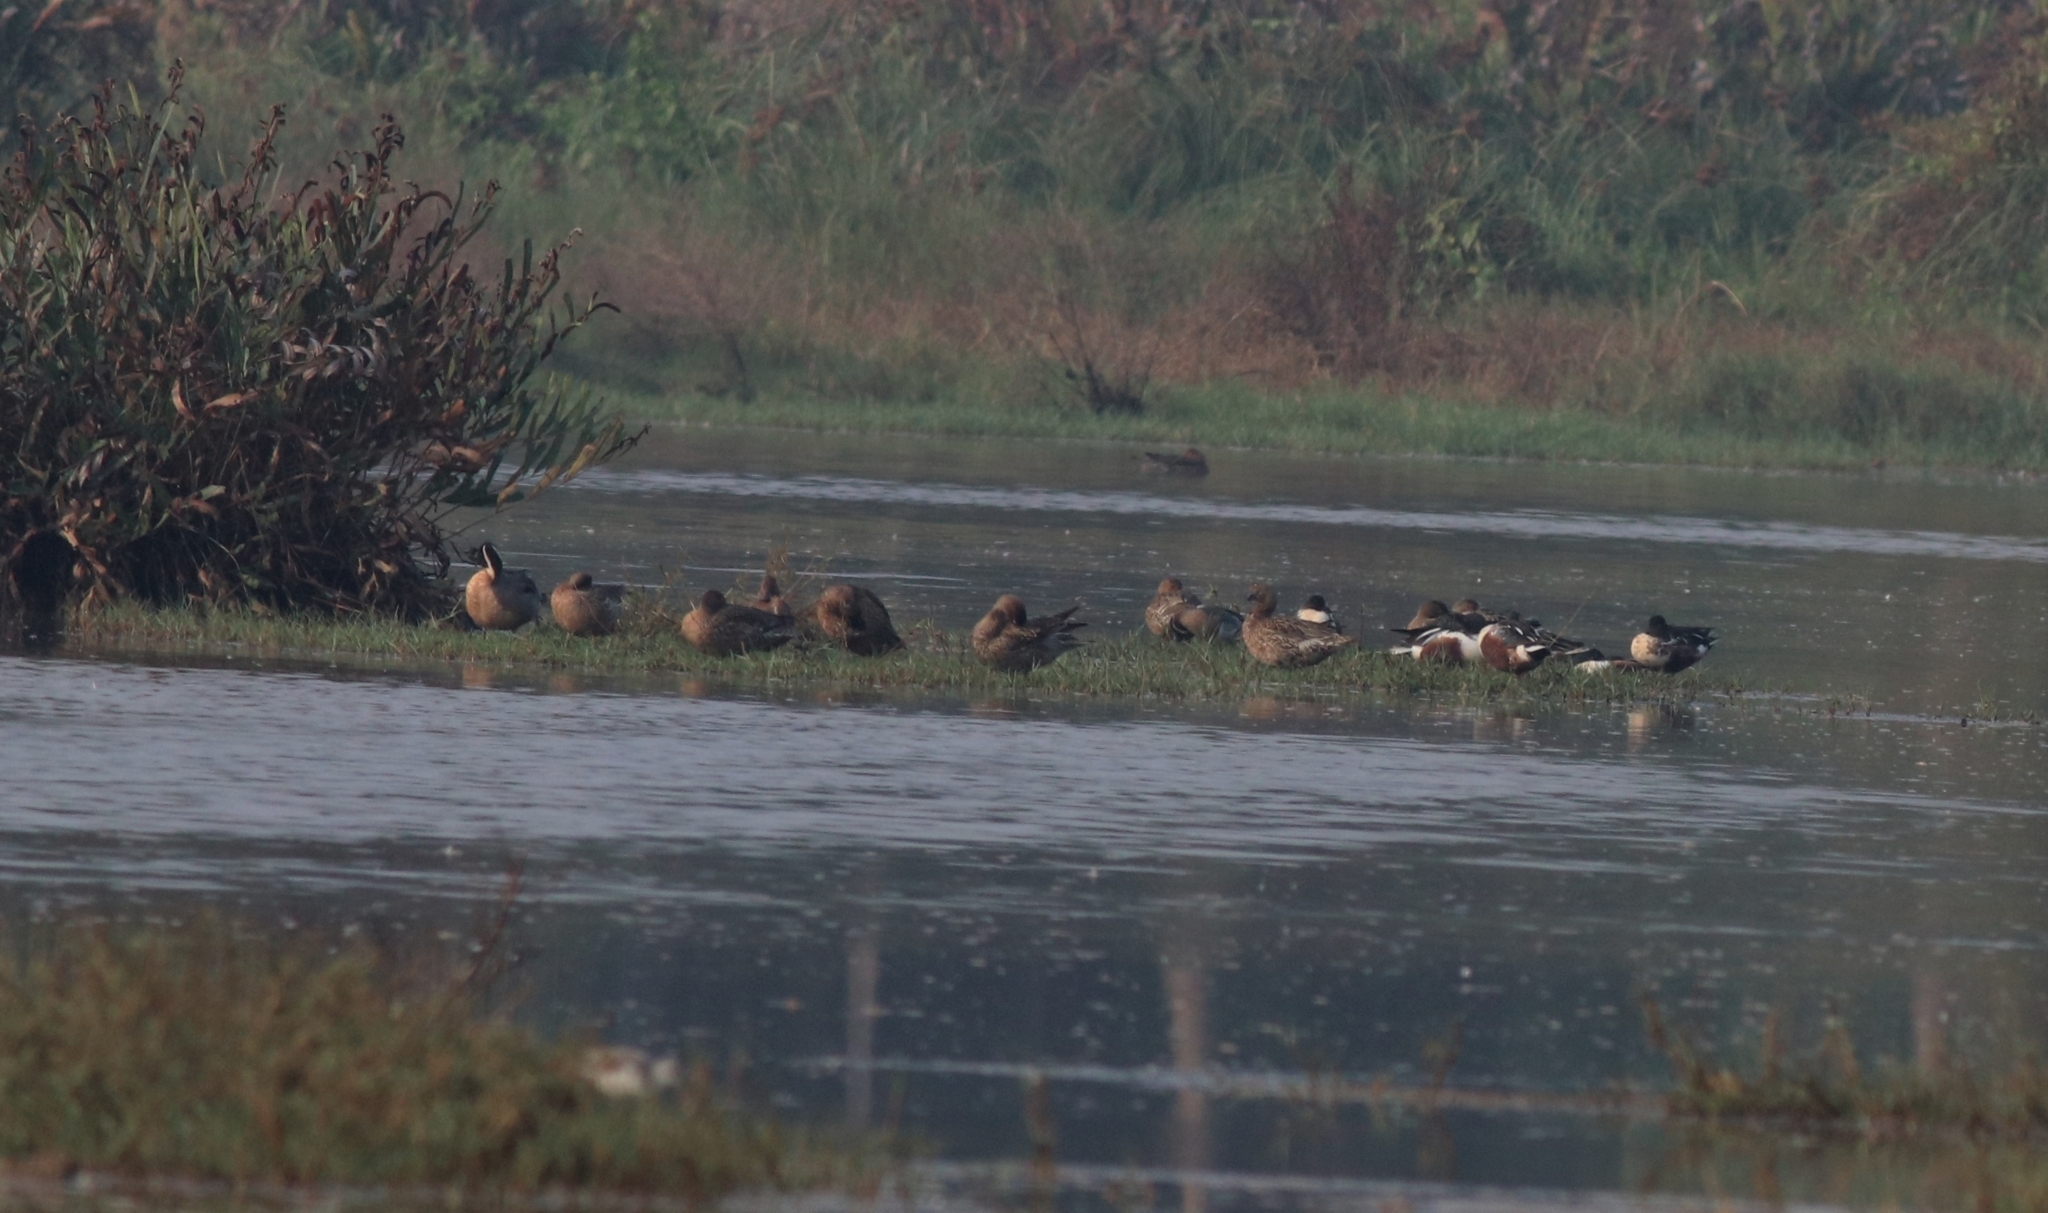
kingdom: Animalia
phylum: Chordata
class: Aves
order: Anseriformes
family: Anatidae
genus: Spatula
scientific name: Spatula clypeata
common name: Northern shoveler
